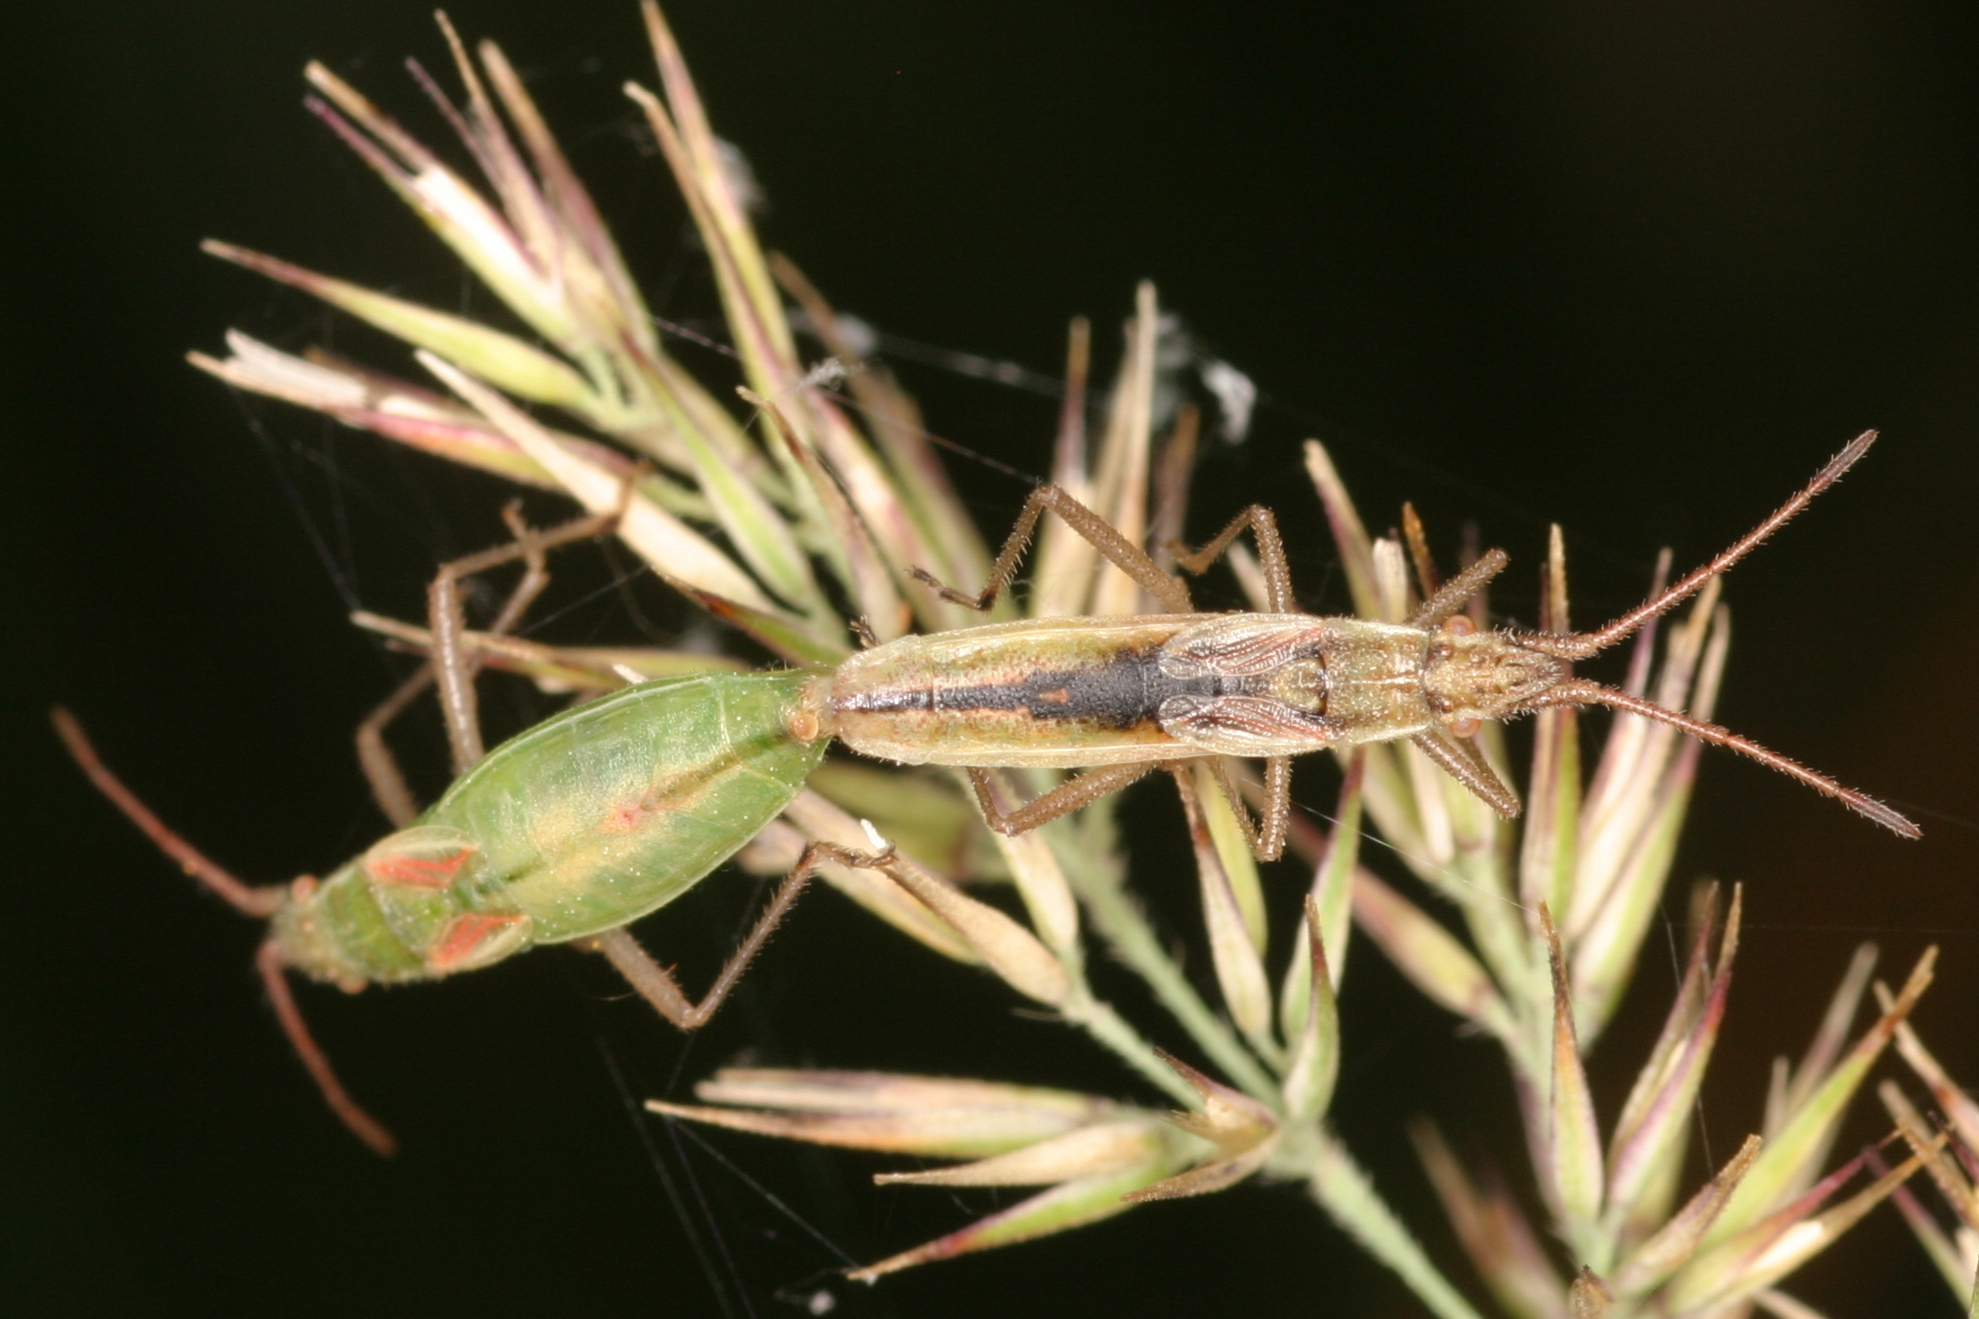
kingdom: Animalia
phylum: Arthropoda
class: Insecta
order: Hemiptera
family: Rhopalidae
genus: Myrmus
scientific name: Myrmus miriformis
